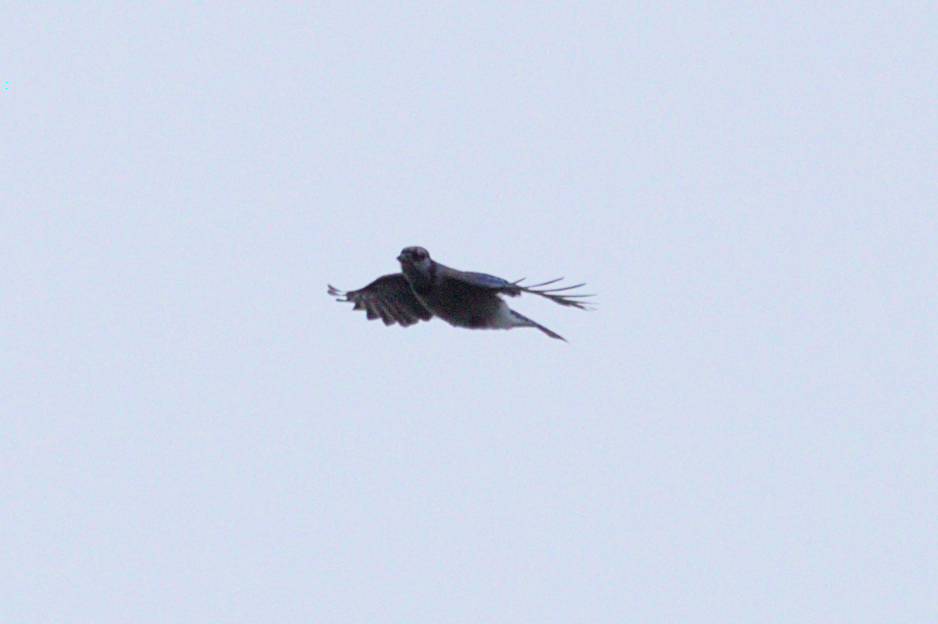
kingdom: Animalia
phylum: Chordata
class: Aves
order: Passeriformes
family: Corvidae
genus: Cyanocitta
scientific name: Cyanocitta cristata
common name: Blue jay
